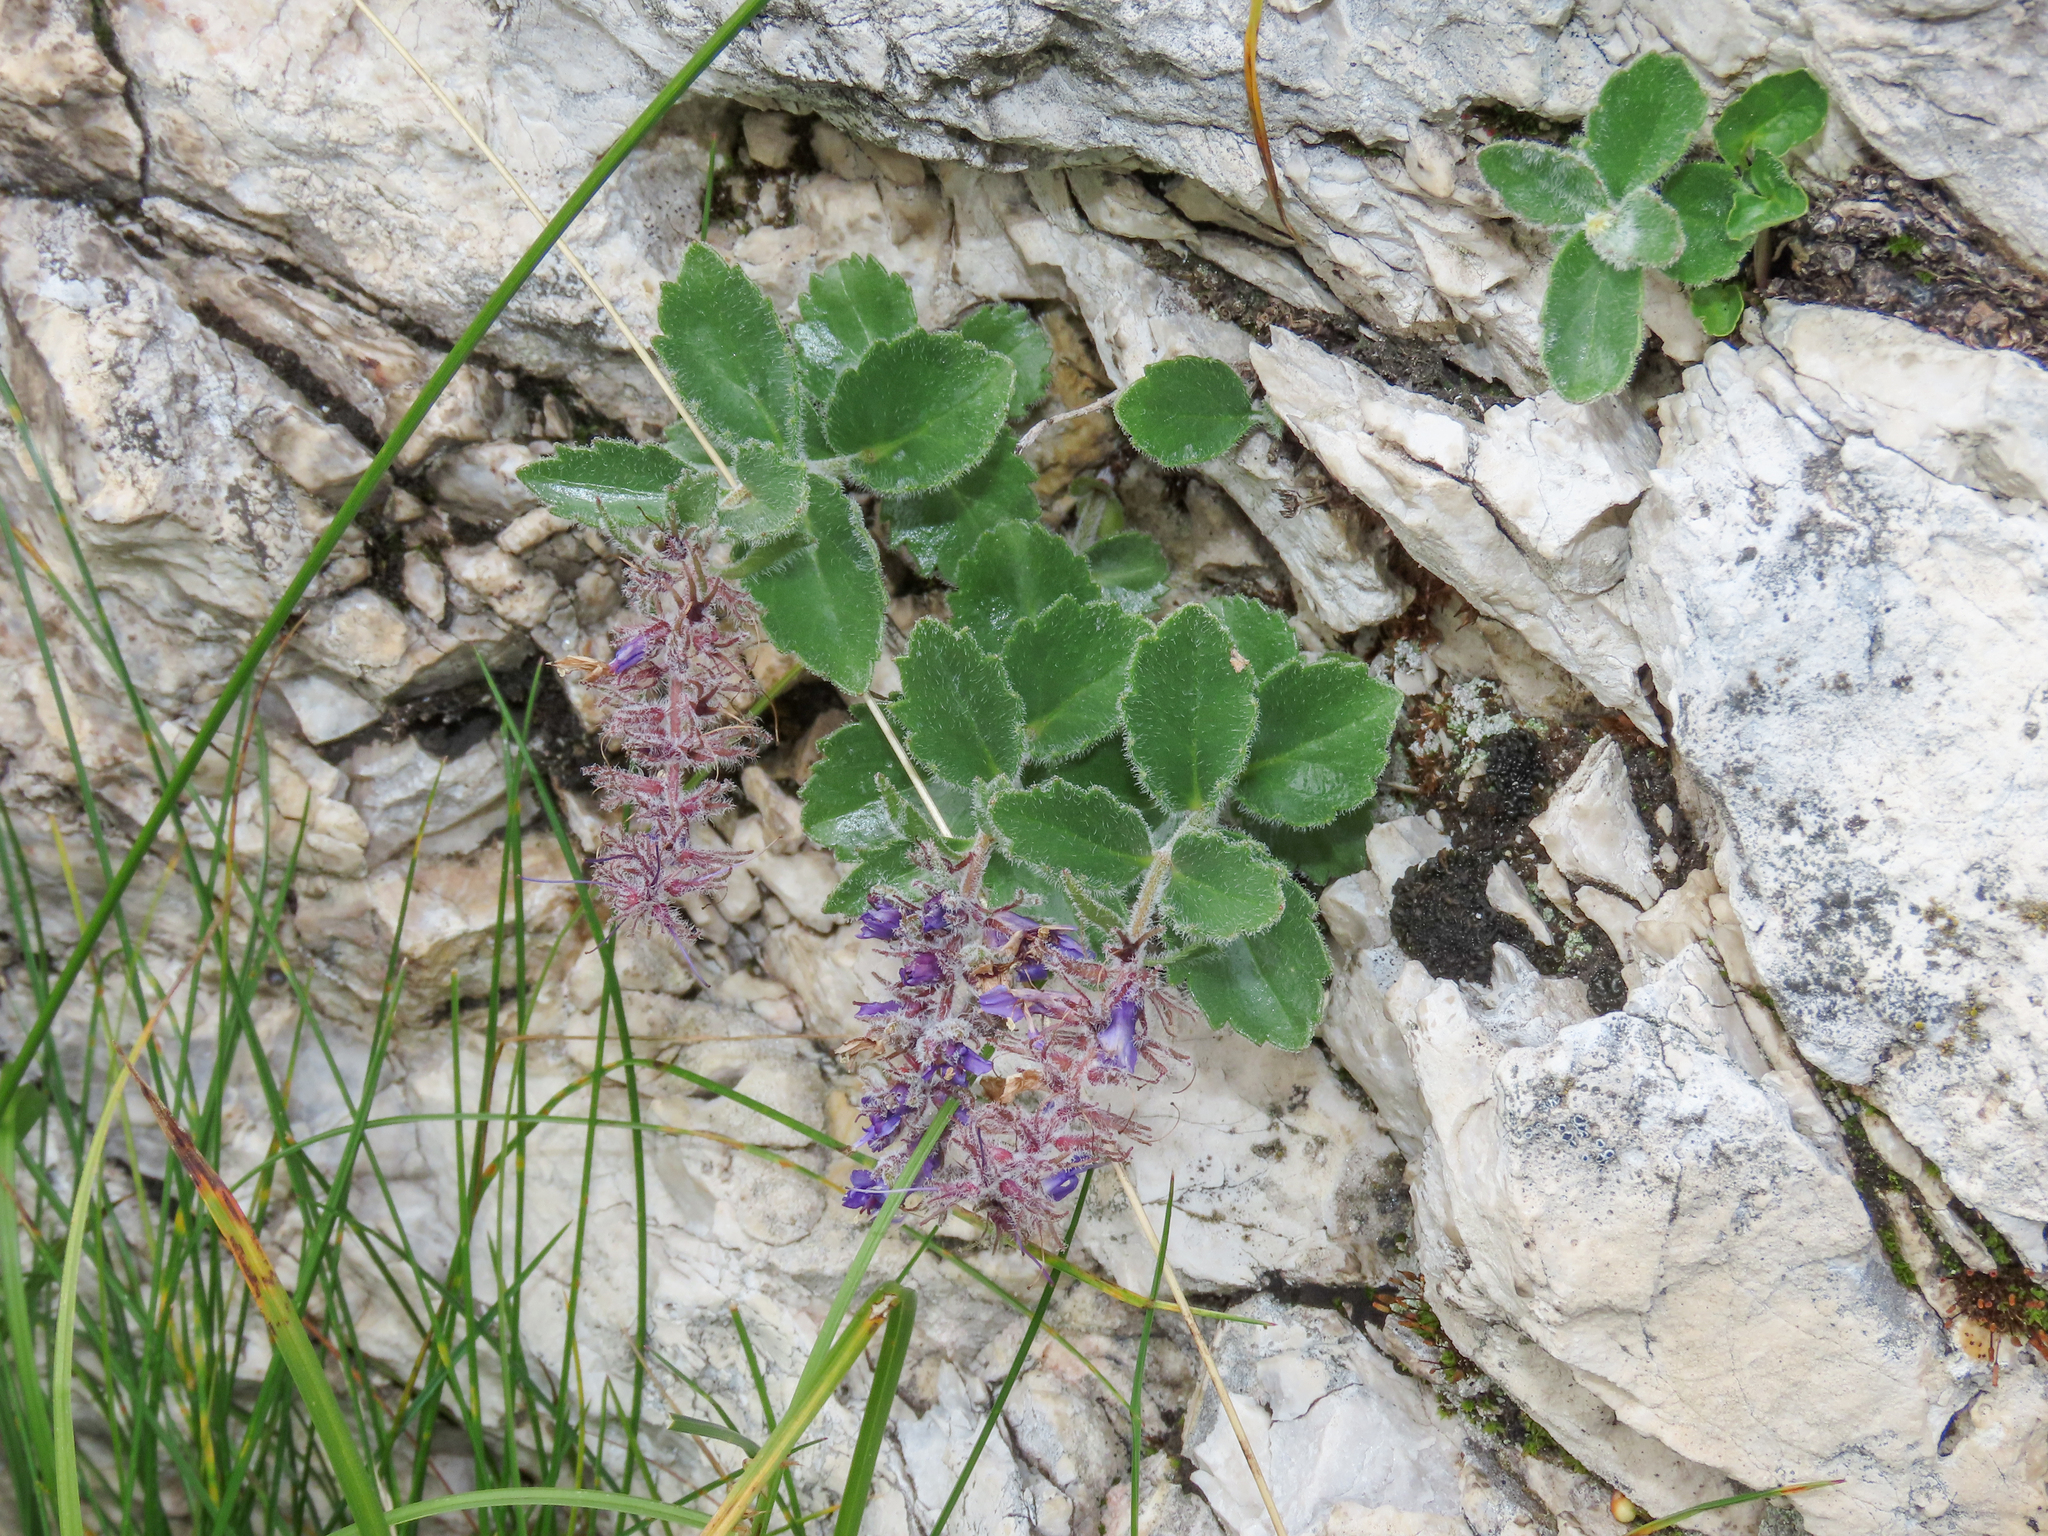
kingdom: Plantae
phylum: Tracheophyta
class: Magnoliopsida
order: Lamiales
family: Plantaginaceae
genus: Paederota
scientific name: Paederota bonarota
